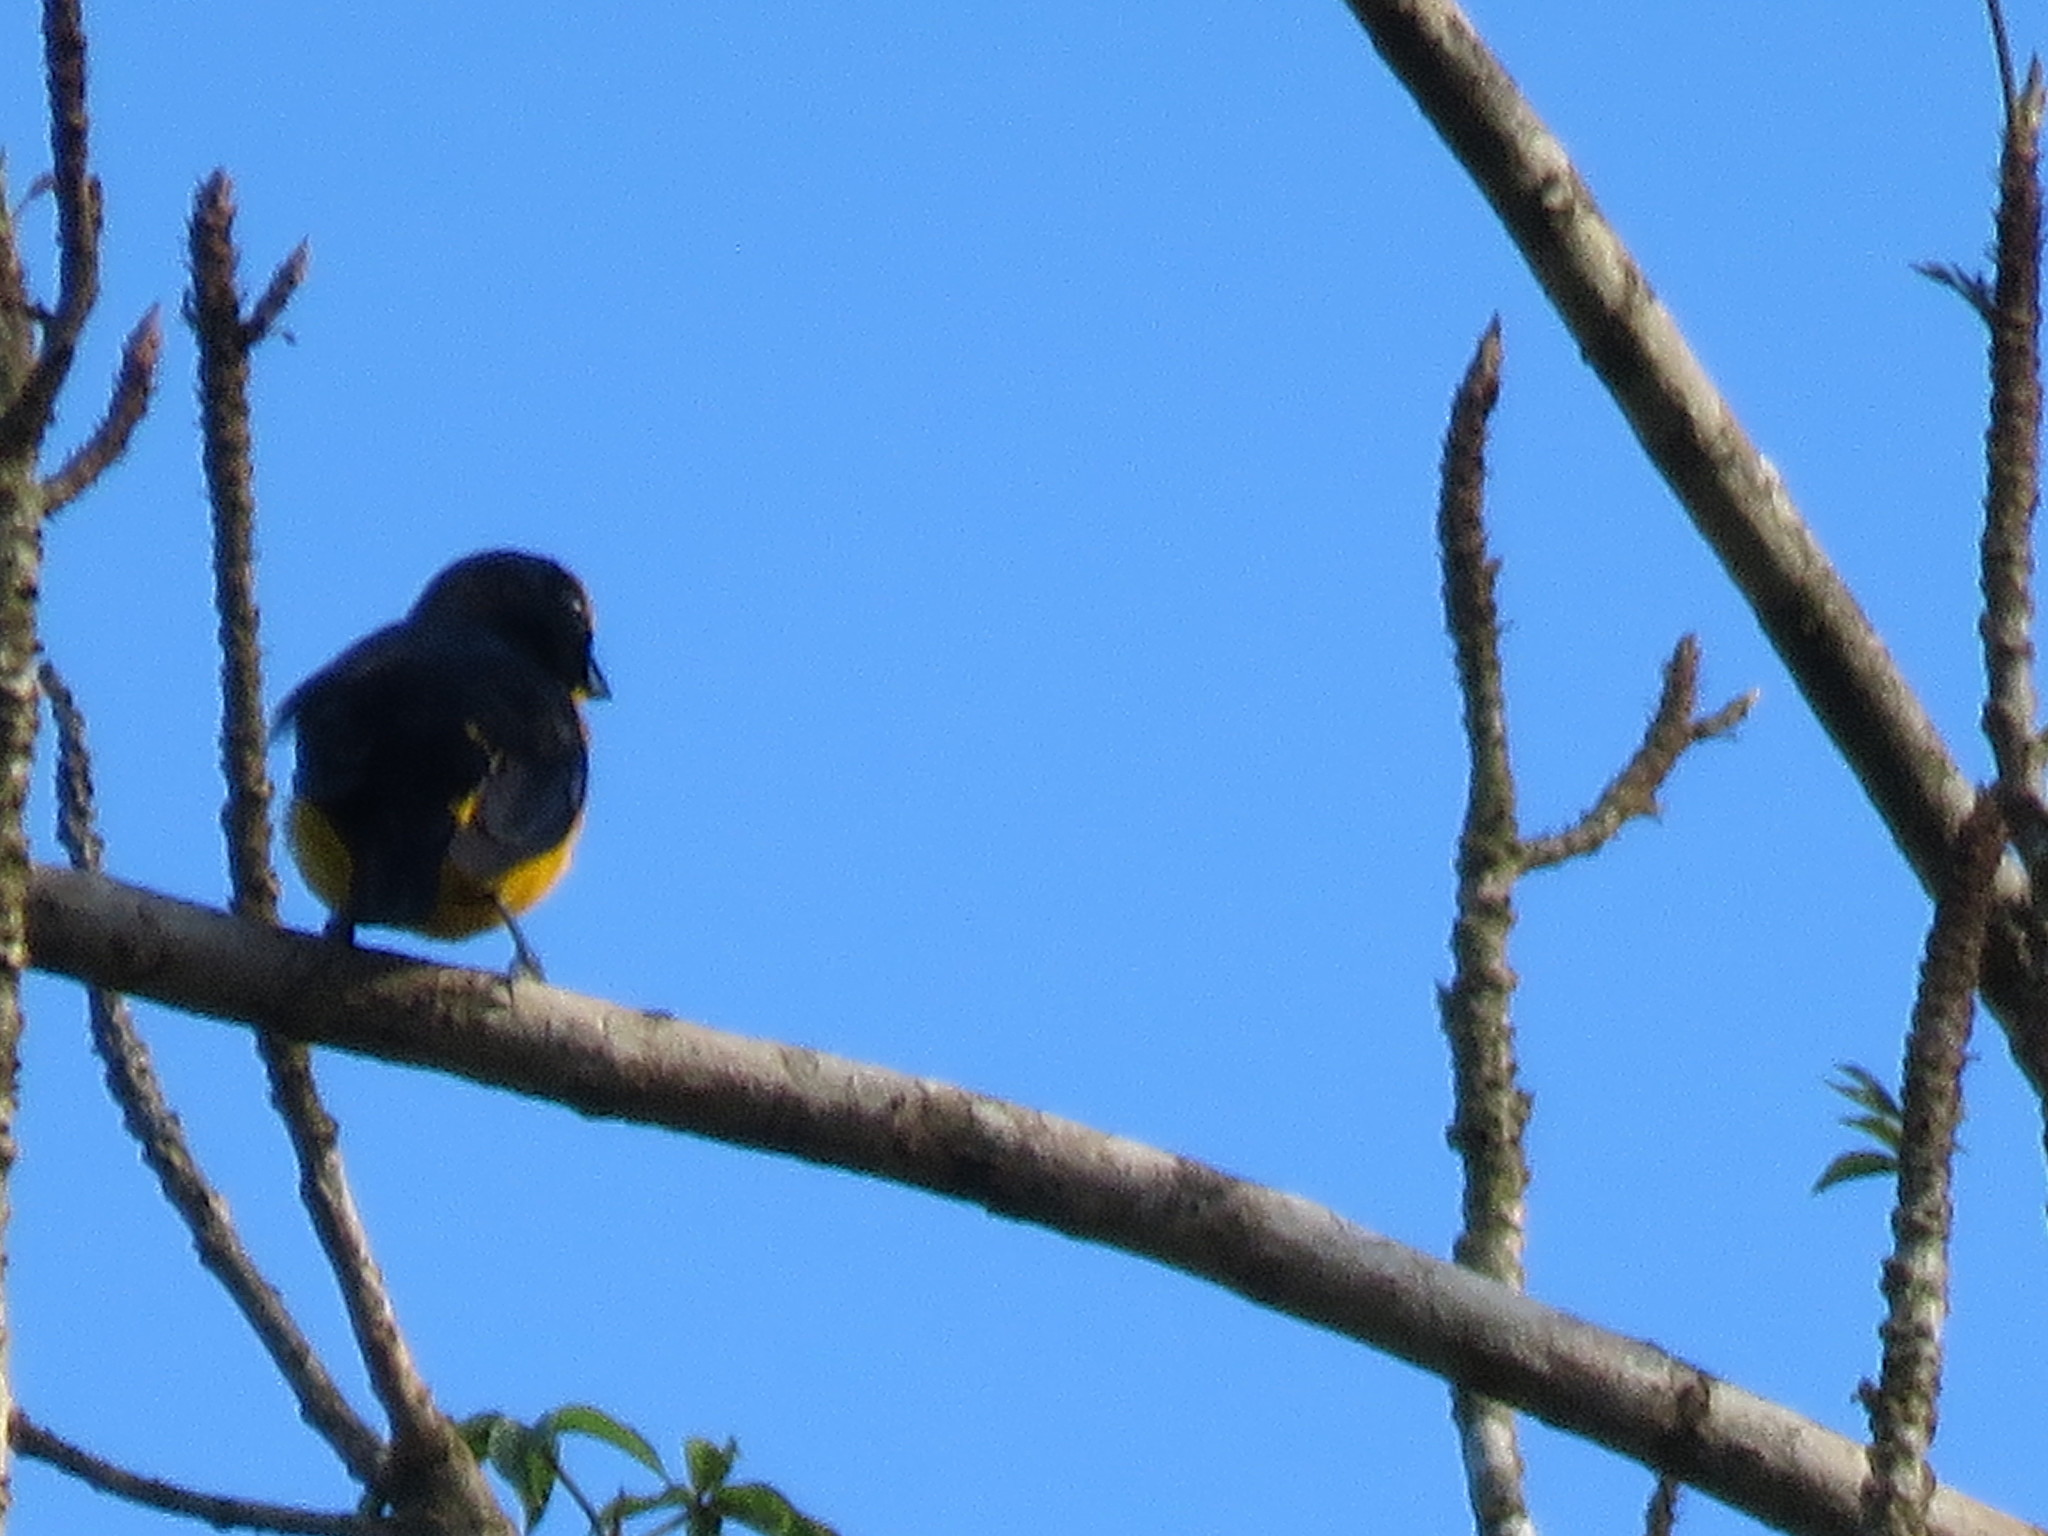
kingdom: Animalia
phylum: Chordata
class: Aves
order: Passeriformes
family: Fringillidae
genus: Euphonia
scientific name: Euphonia laniirostris
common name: Thick-billed euphonia
